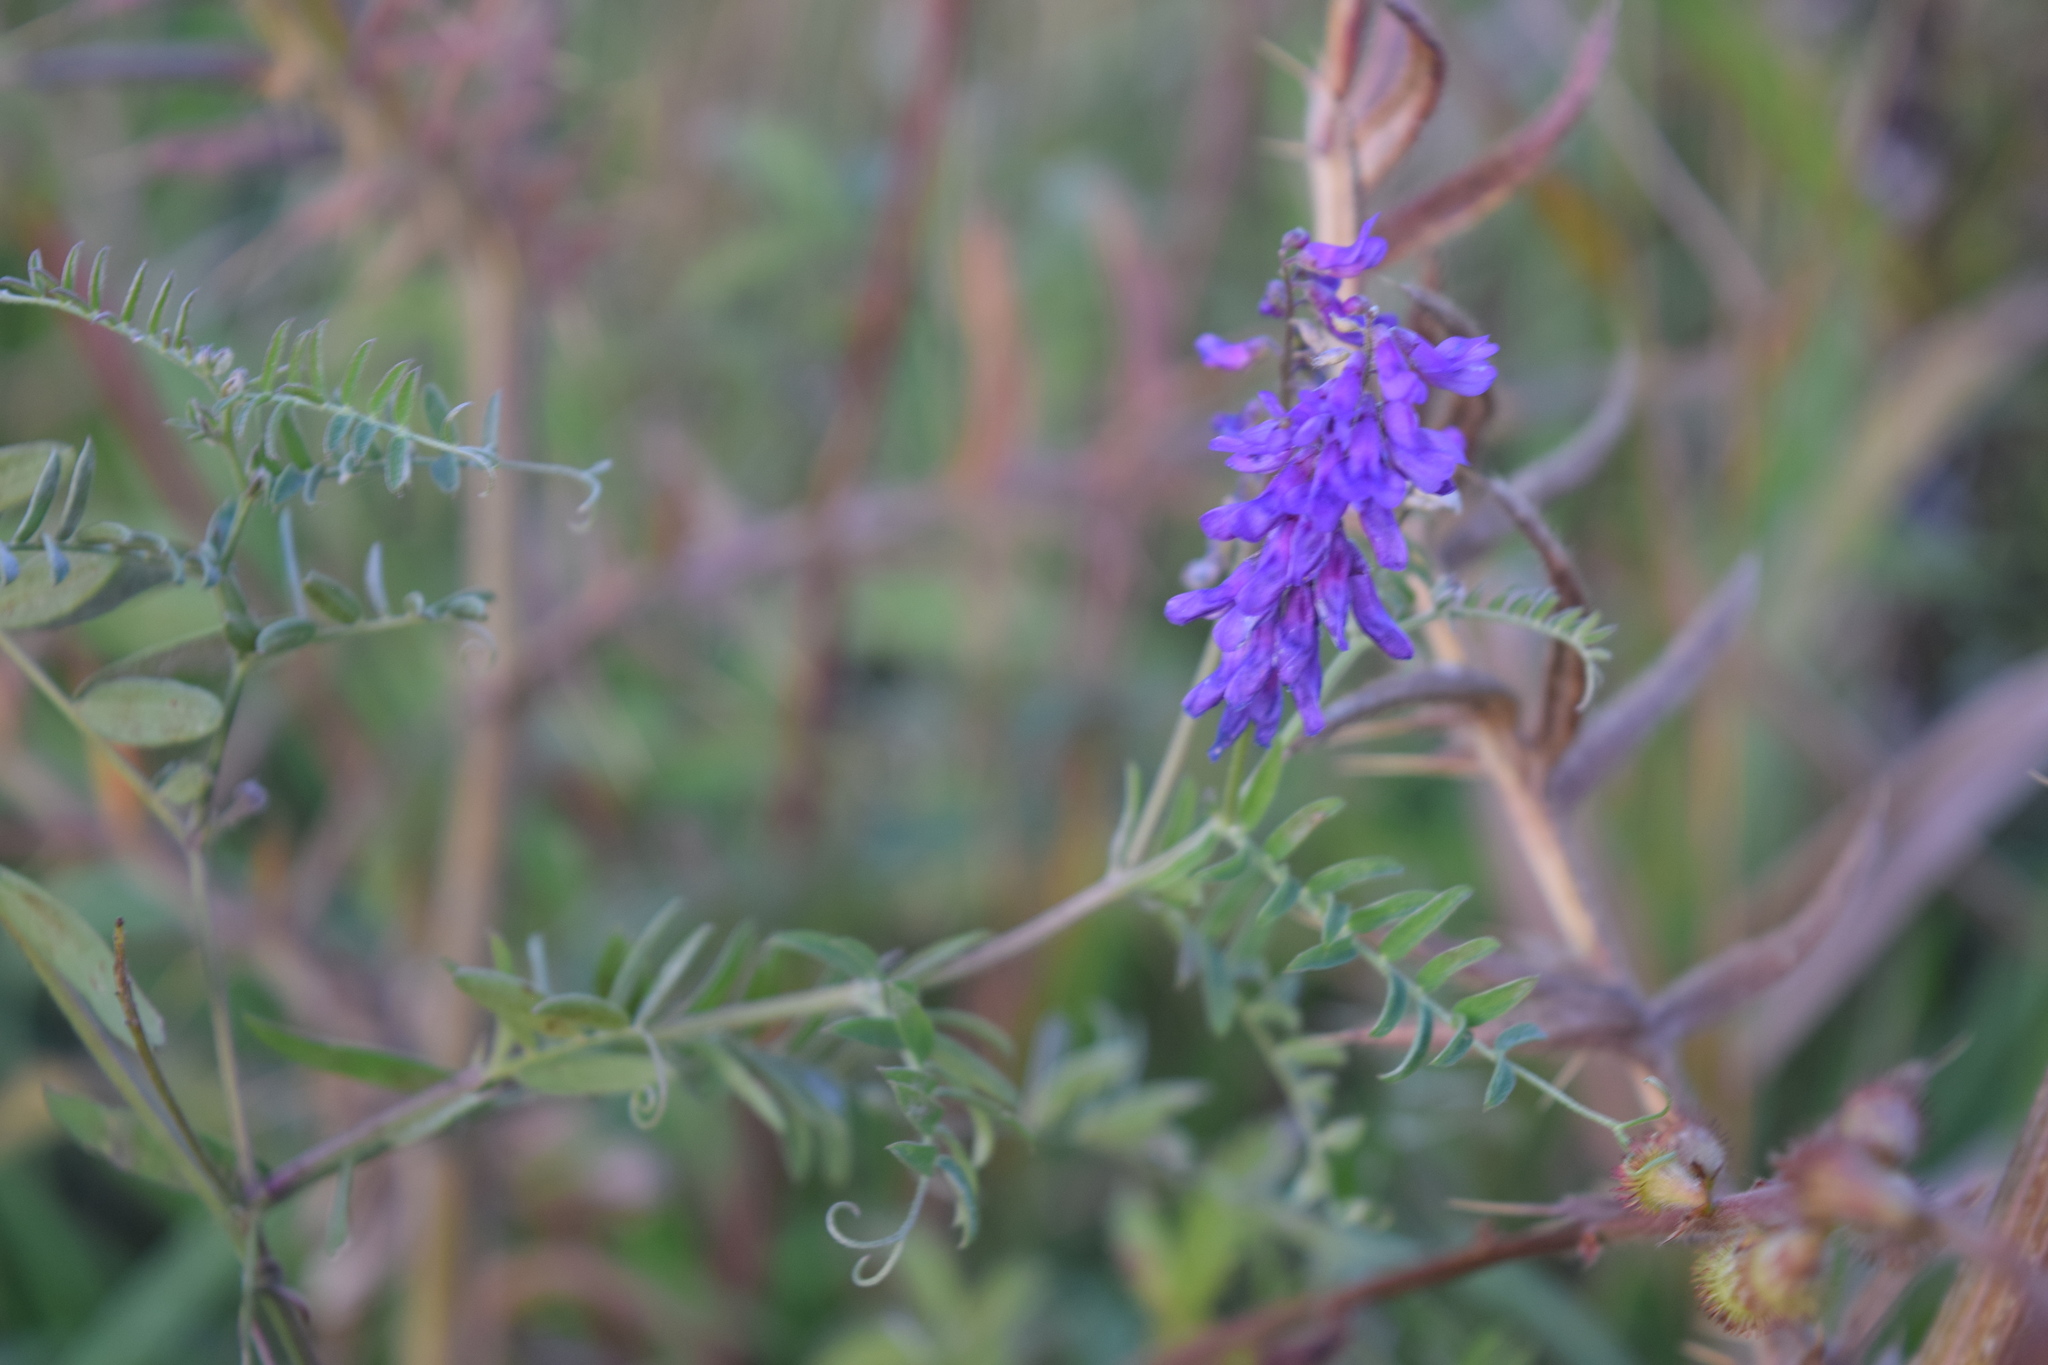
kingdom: Plantae
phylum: Tracheophyta
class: Magnoliopsida
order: Fabales
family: Fabaceae
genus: Vicia
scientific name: Vicia cracca
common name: Bird vetch
